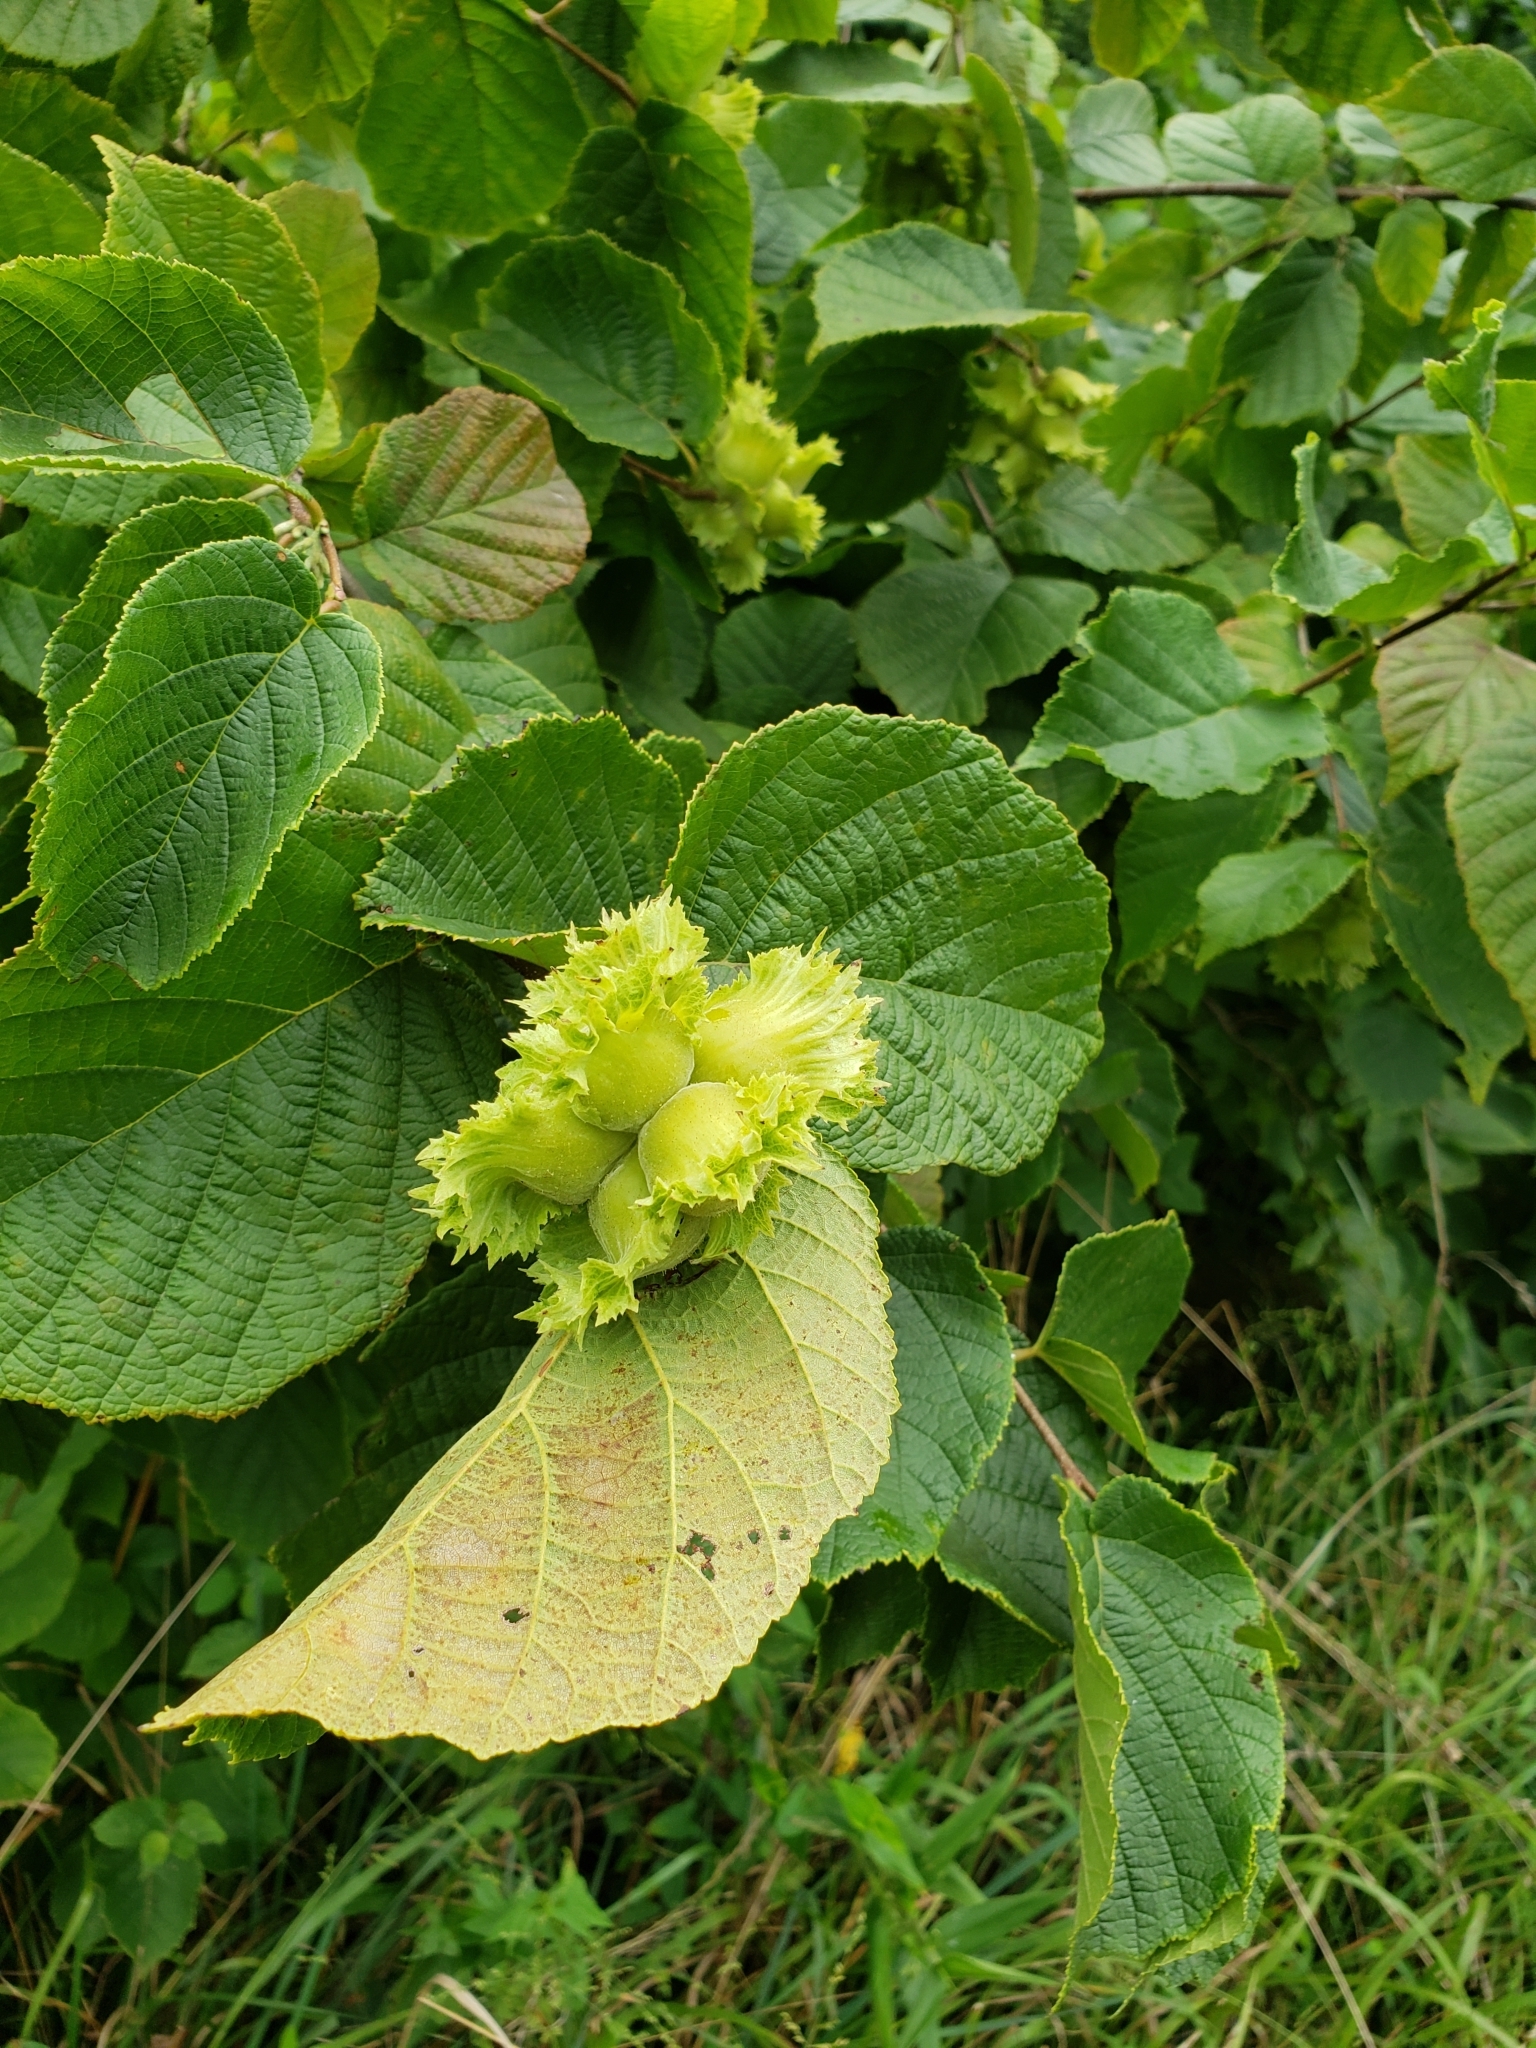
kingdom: Plantae
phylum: Tracheophyta
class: Magnoliopsida
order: Fagales
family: Betulaceae
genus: Corylus
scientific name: Corylus americana
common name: American hazel
